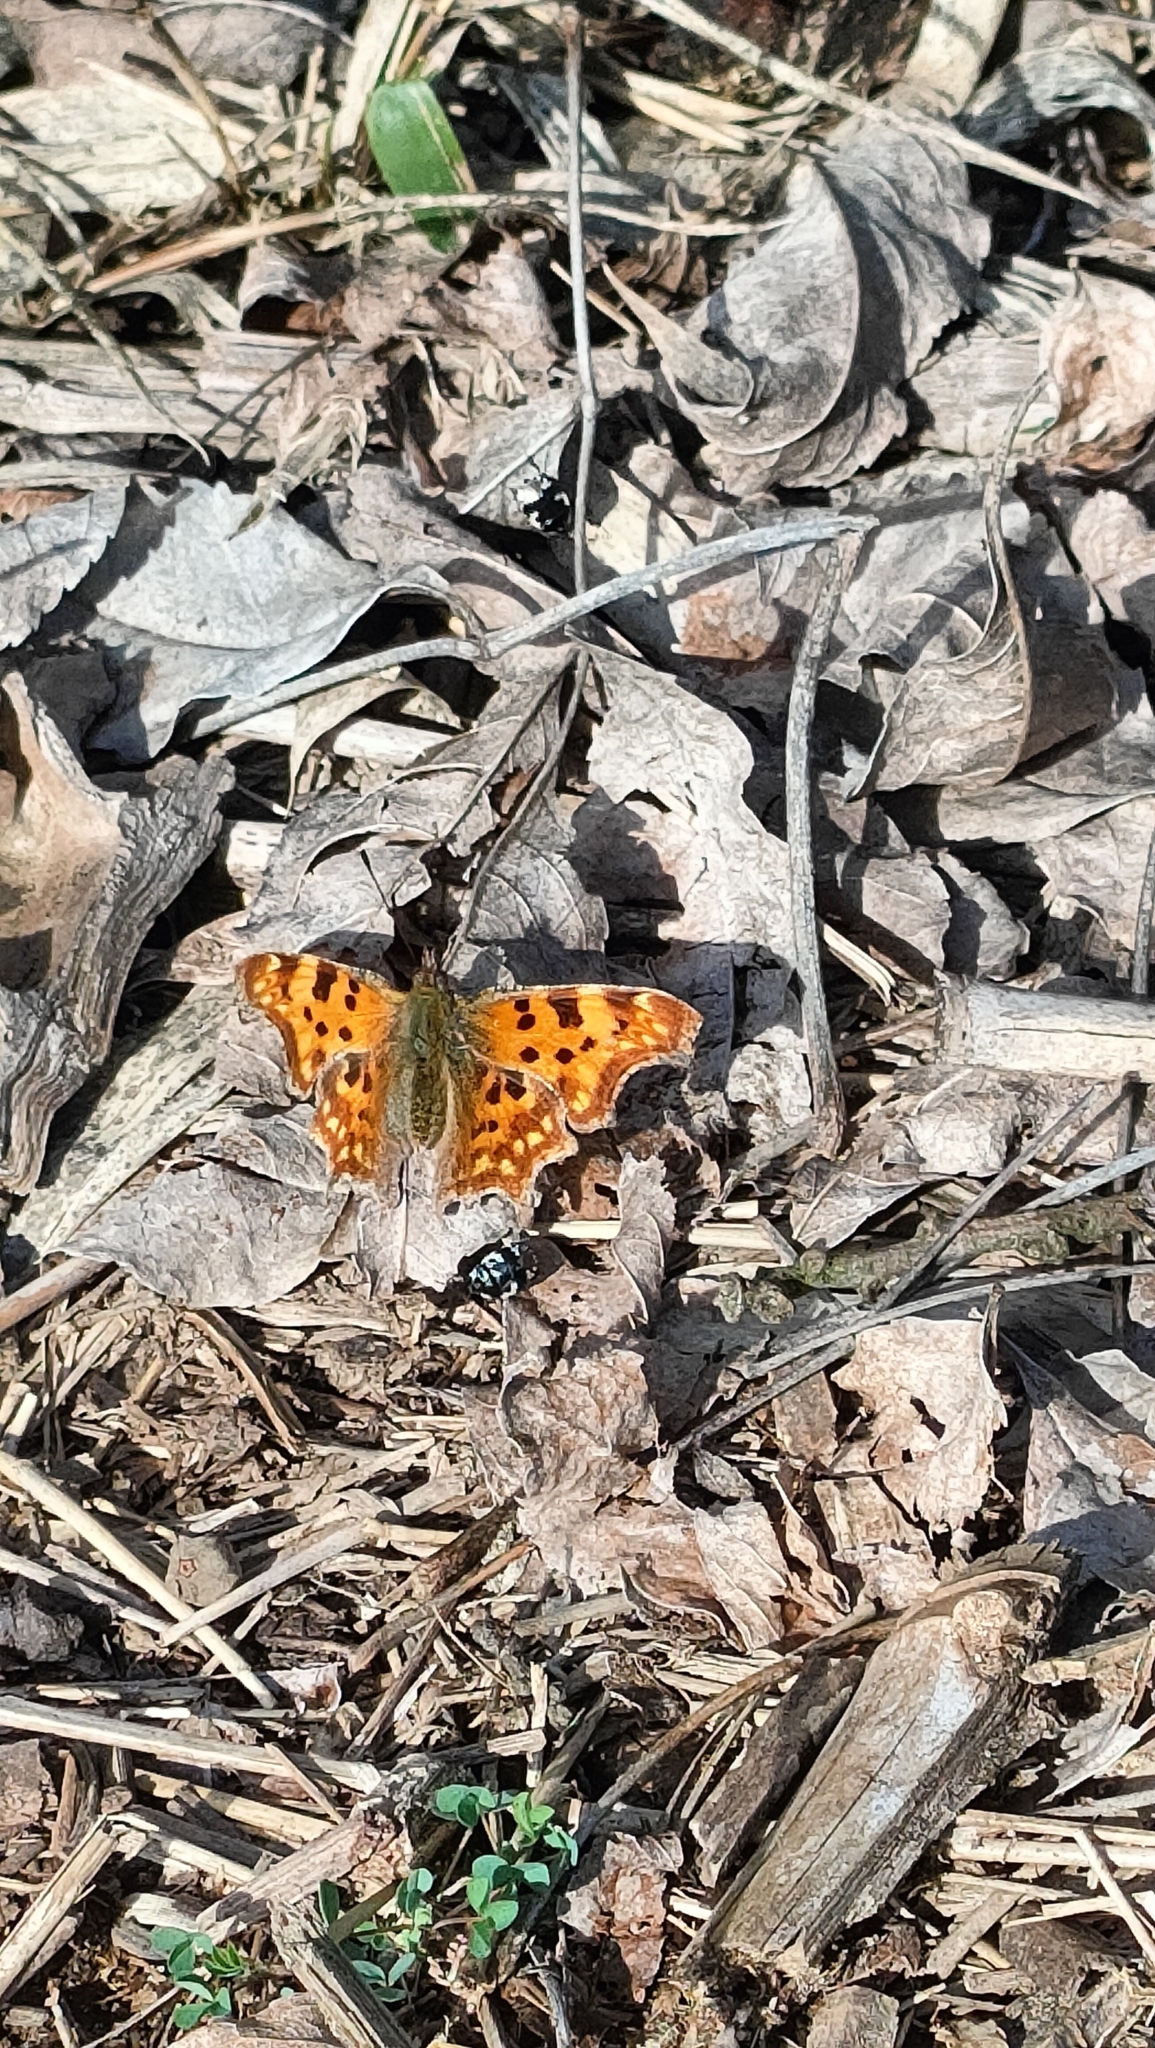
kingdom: Animalia
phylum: Arthropoda
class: Insecta
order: Lepidoptera
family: Nymphalidae
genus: Polygonia
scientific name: Polygonia c-album
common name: Comma
